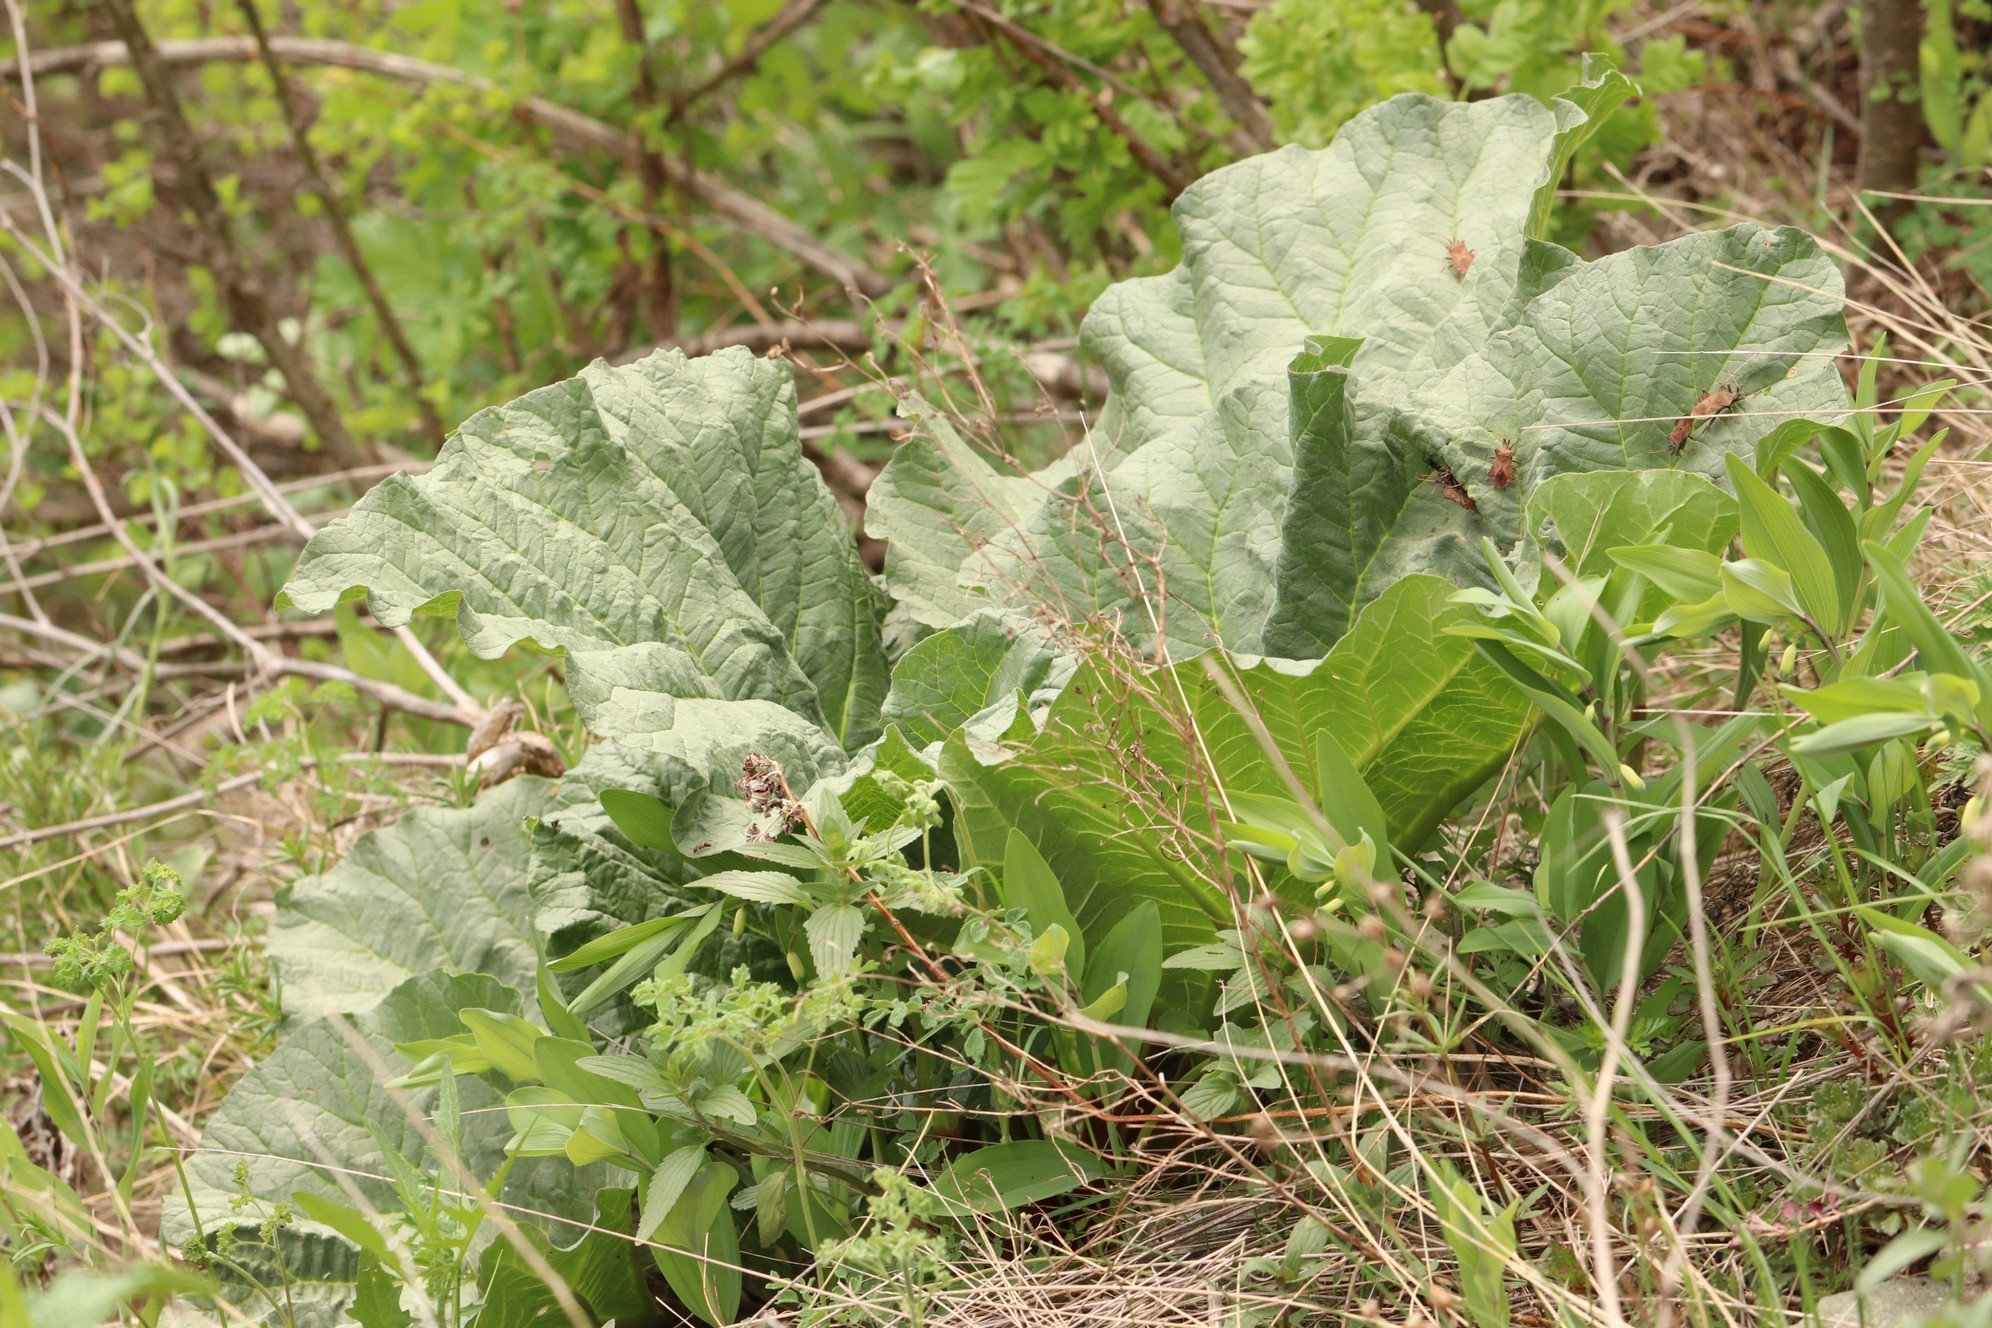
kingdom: Plantae
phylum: Tracheophyta
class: Magnoliopsida
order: Caryophyllales
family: Polygonaceae
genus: Rheum
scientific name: Rheum compactum
